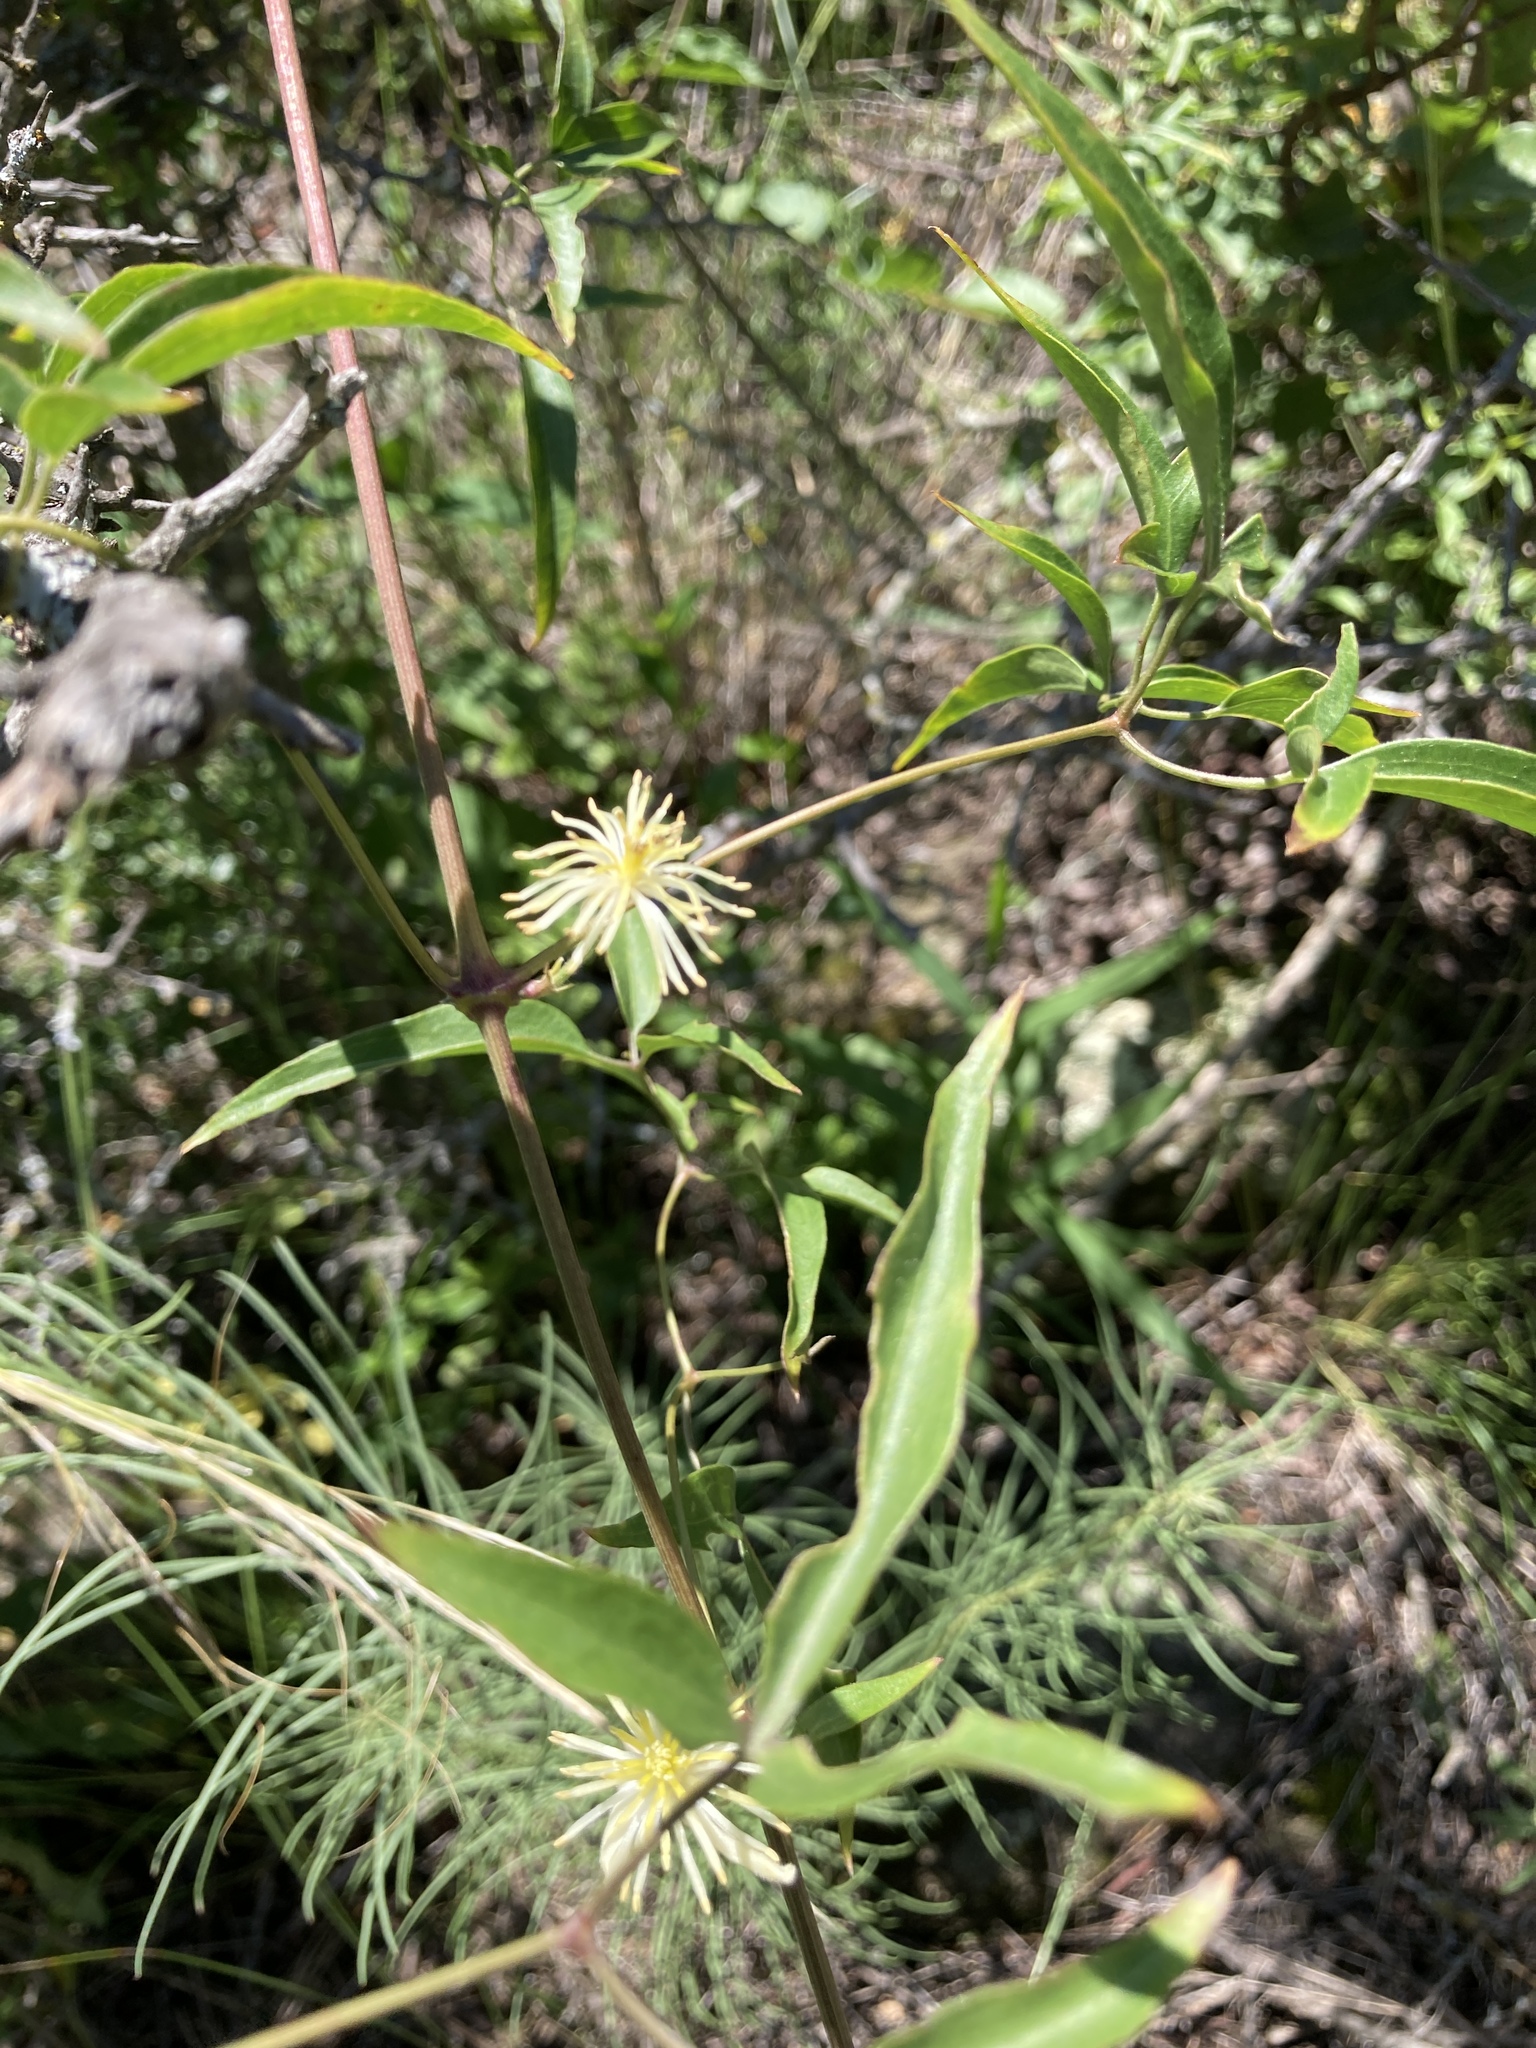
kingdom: Plantae
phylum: Tracheophyta
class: Magnoliopsida
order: Ranunculales
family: Ranunculaceae
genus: Clematis
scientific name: Clematis montevidensis
